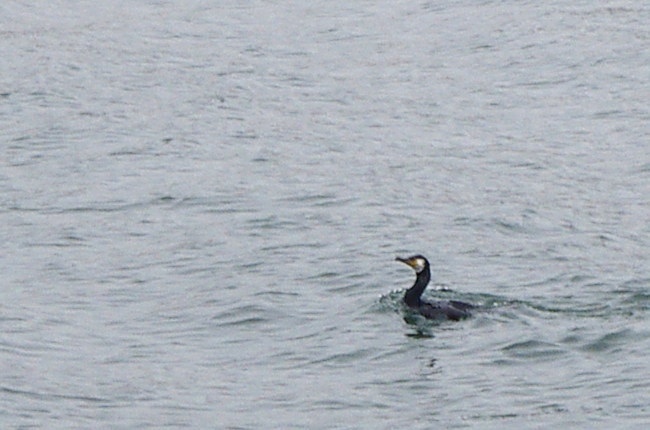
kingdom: Animalia
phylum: Chordata
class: Aves
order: Suliformes
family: Phalacrocoracidae
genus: Phalacrocorax
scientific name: Phalacrocorax capillatus
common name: Japanese cormorant
